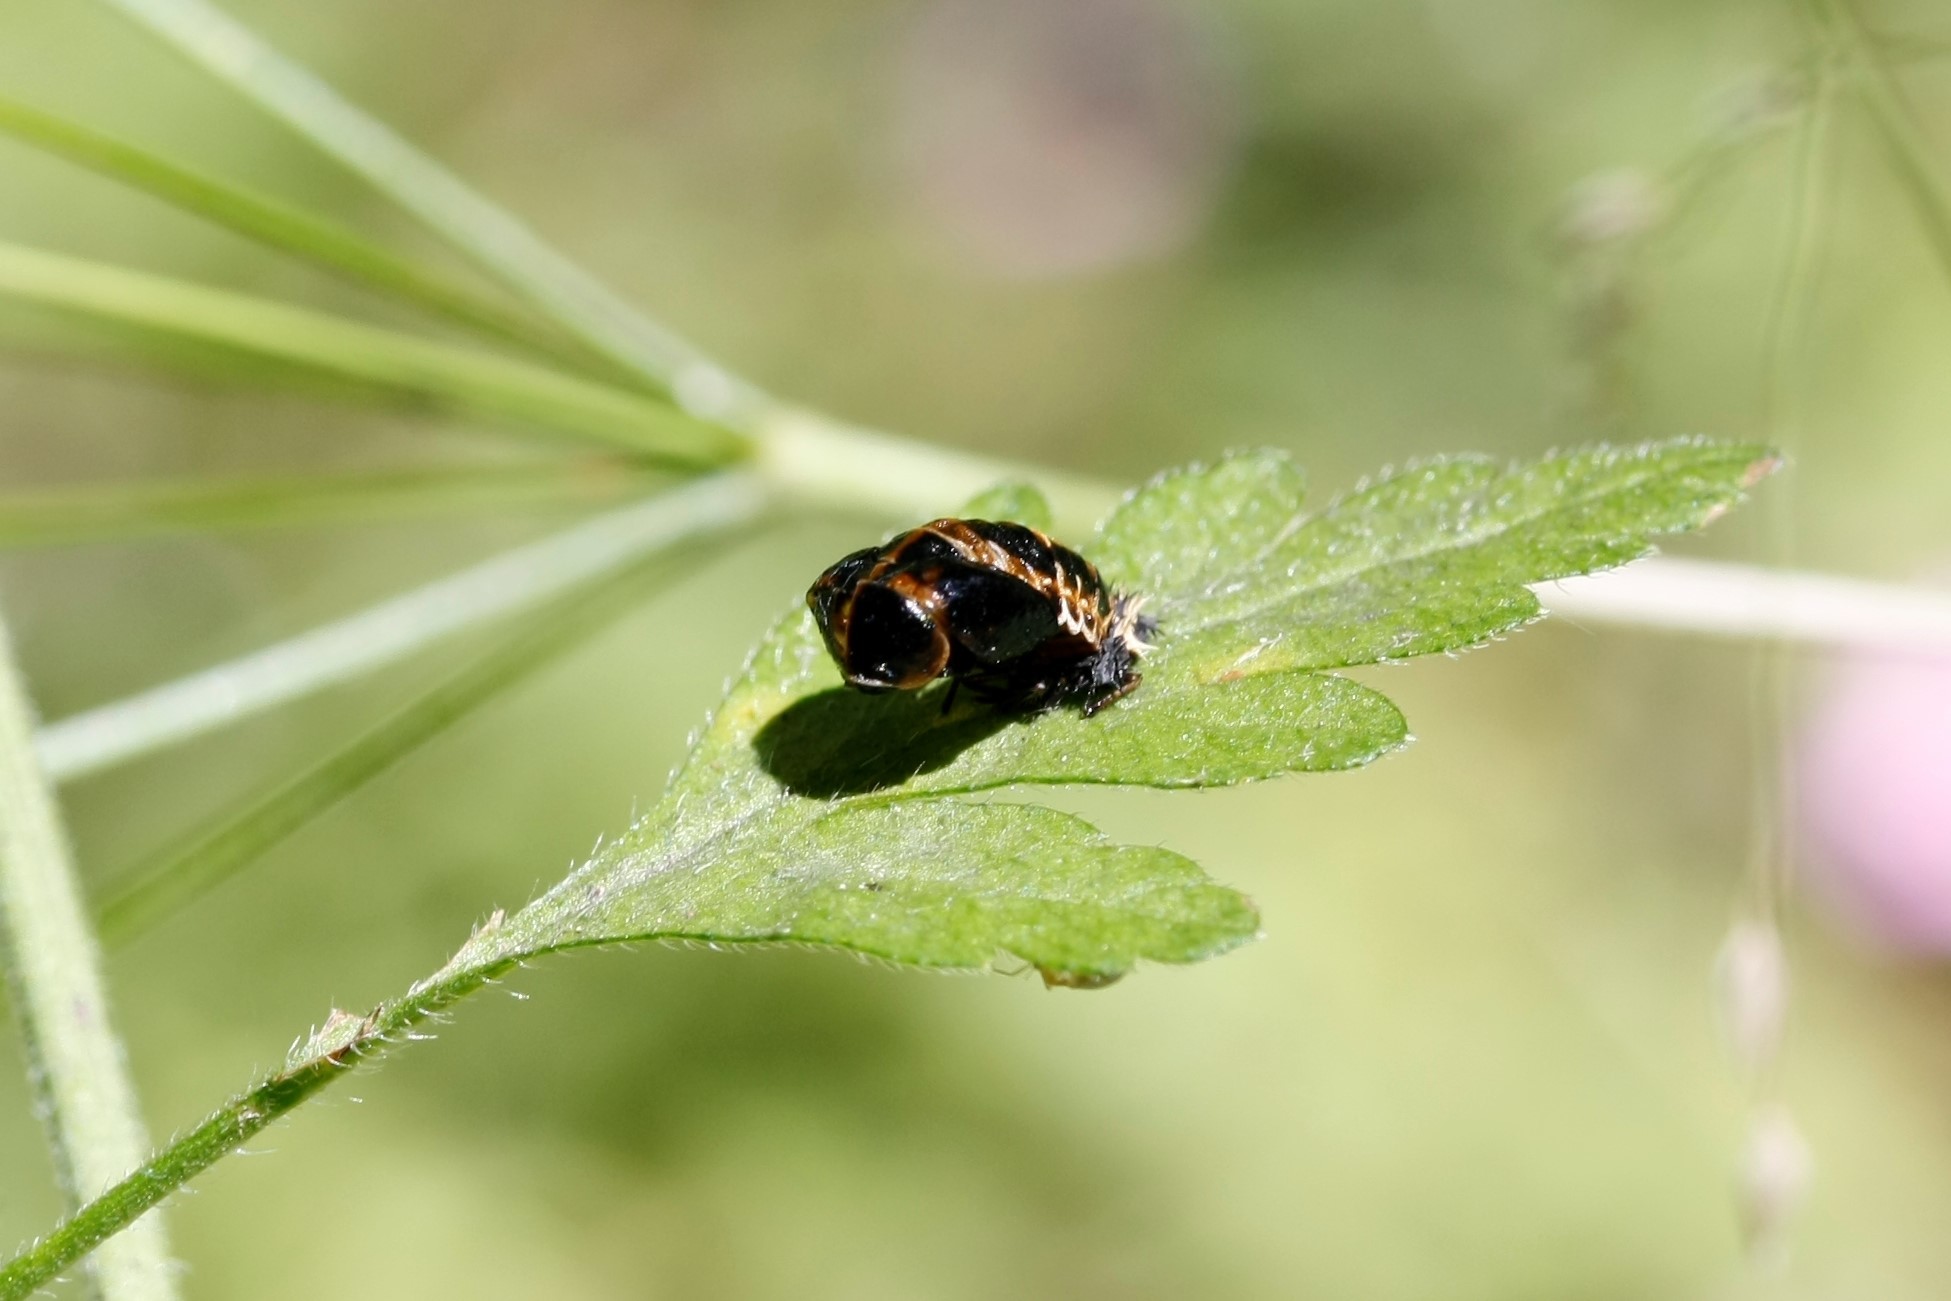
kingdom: Animalia
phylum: Arthropoda
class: Insecta
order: Coleoptera
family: Coccinellidae
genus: Harmonia
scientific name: Harmonia axyridis
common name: Harlequin ladybird
